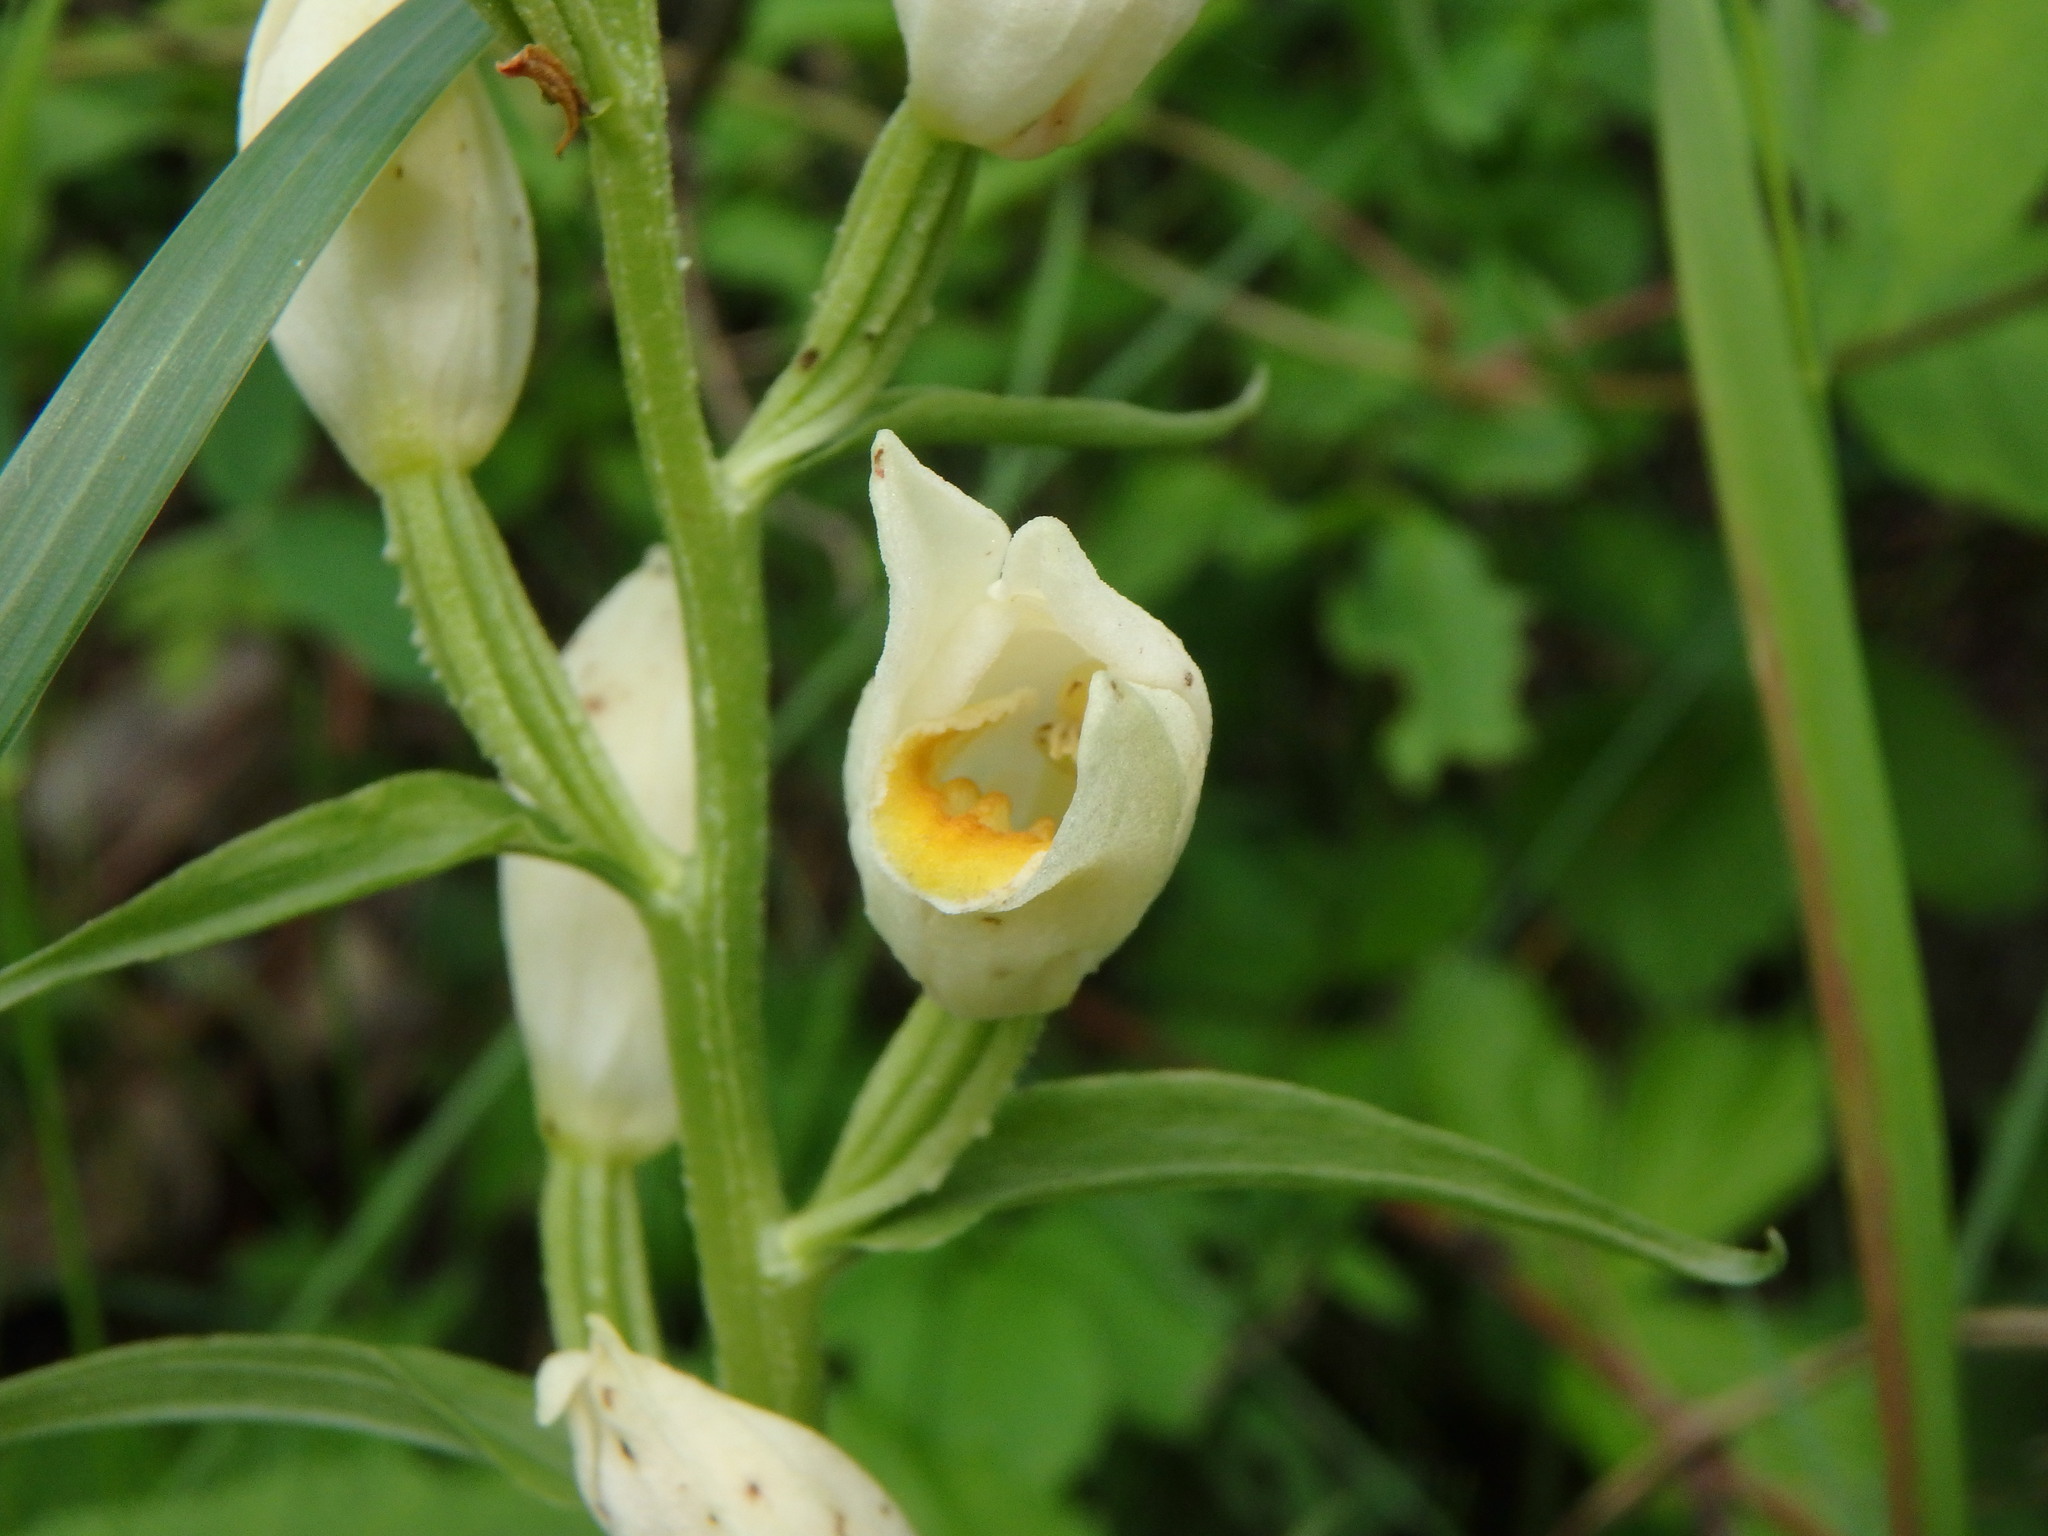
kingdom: Plantae
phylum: Tracheophyta
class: Liliopsida
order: Asparagales
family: Orchidaceae
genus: Cephalanthera
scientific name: Cephalanthera damasonium
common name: White helleborine
